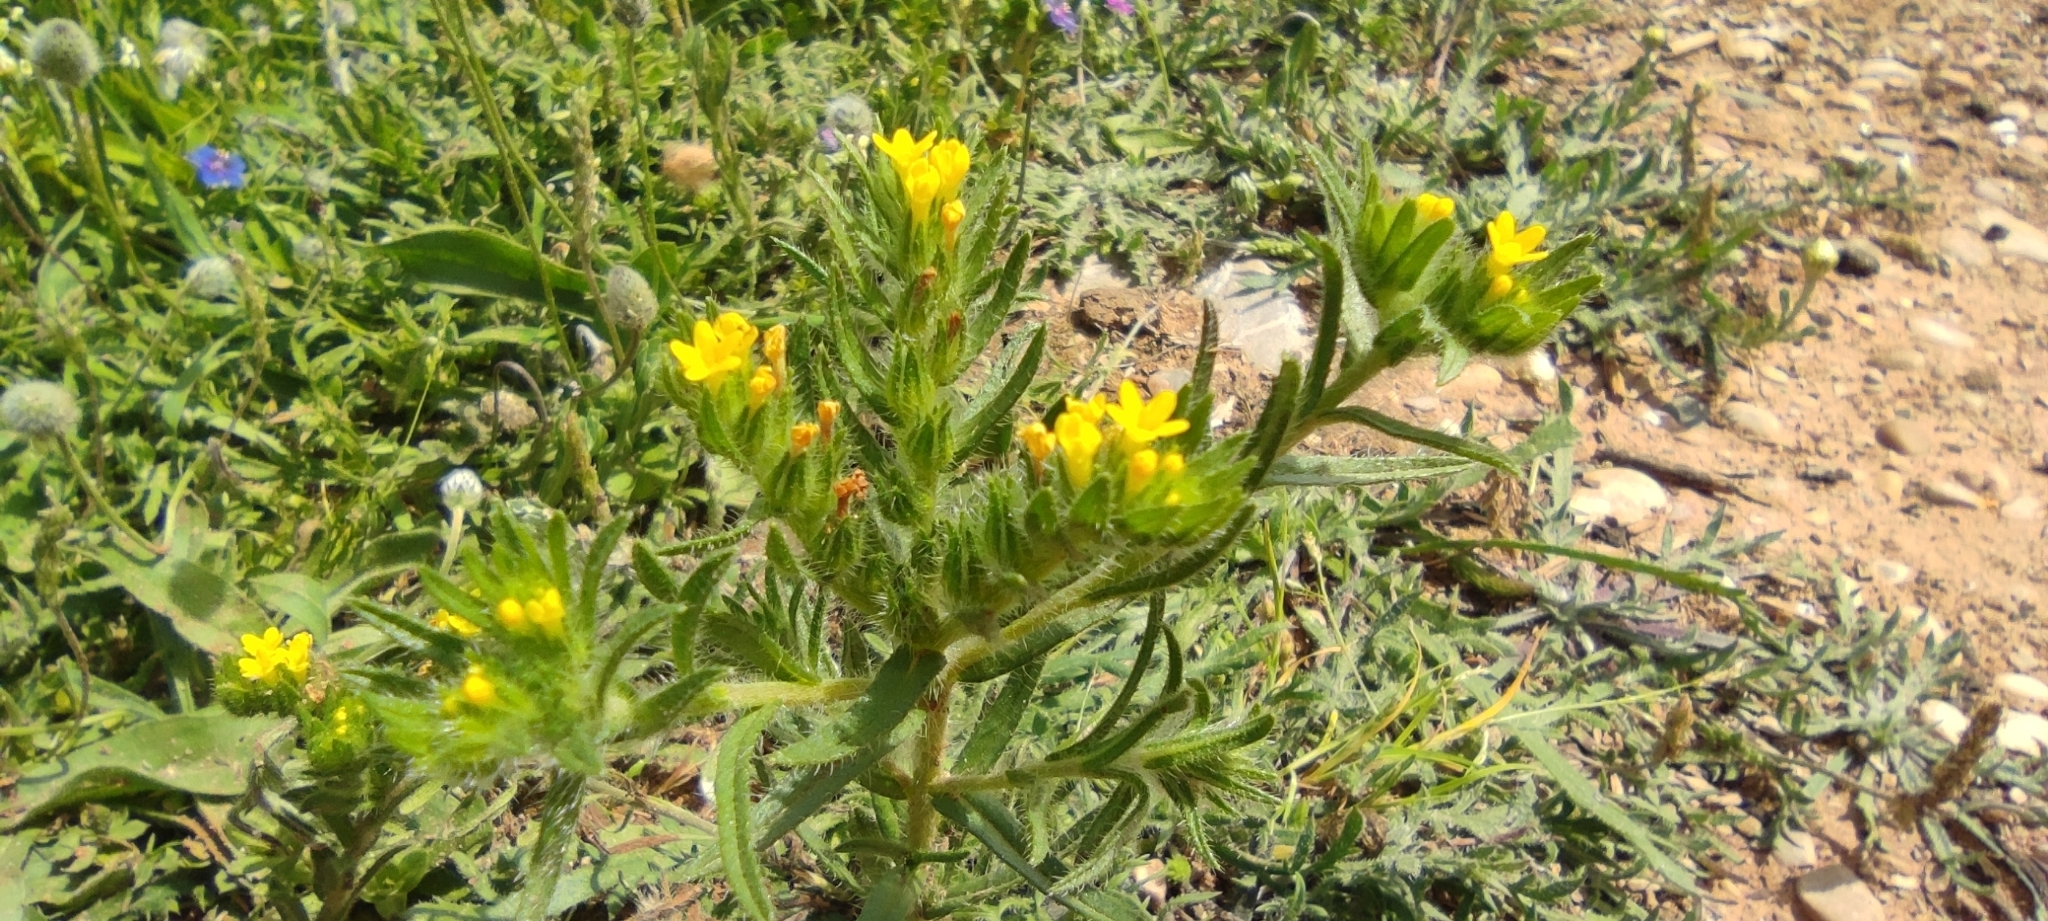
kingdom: Plantae
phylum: Tracheophyta
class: Magnoliopsida
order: Boraginales
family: Boraginaceae
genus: Neatostema
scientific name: Neatostema apulum
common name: Hairy sheepweed
